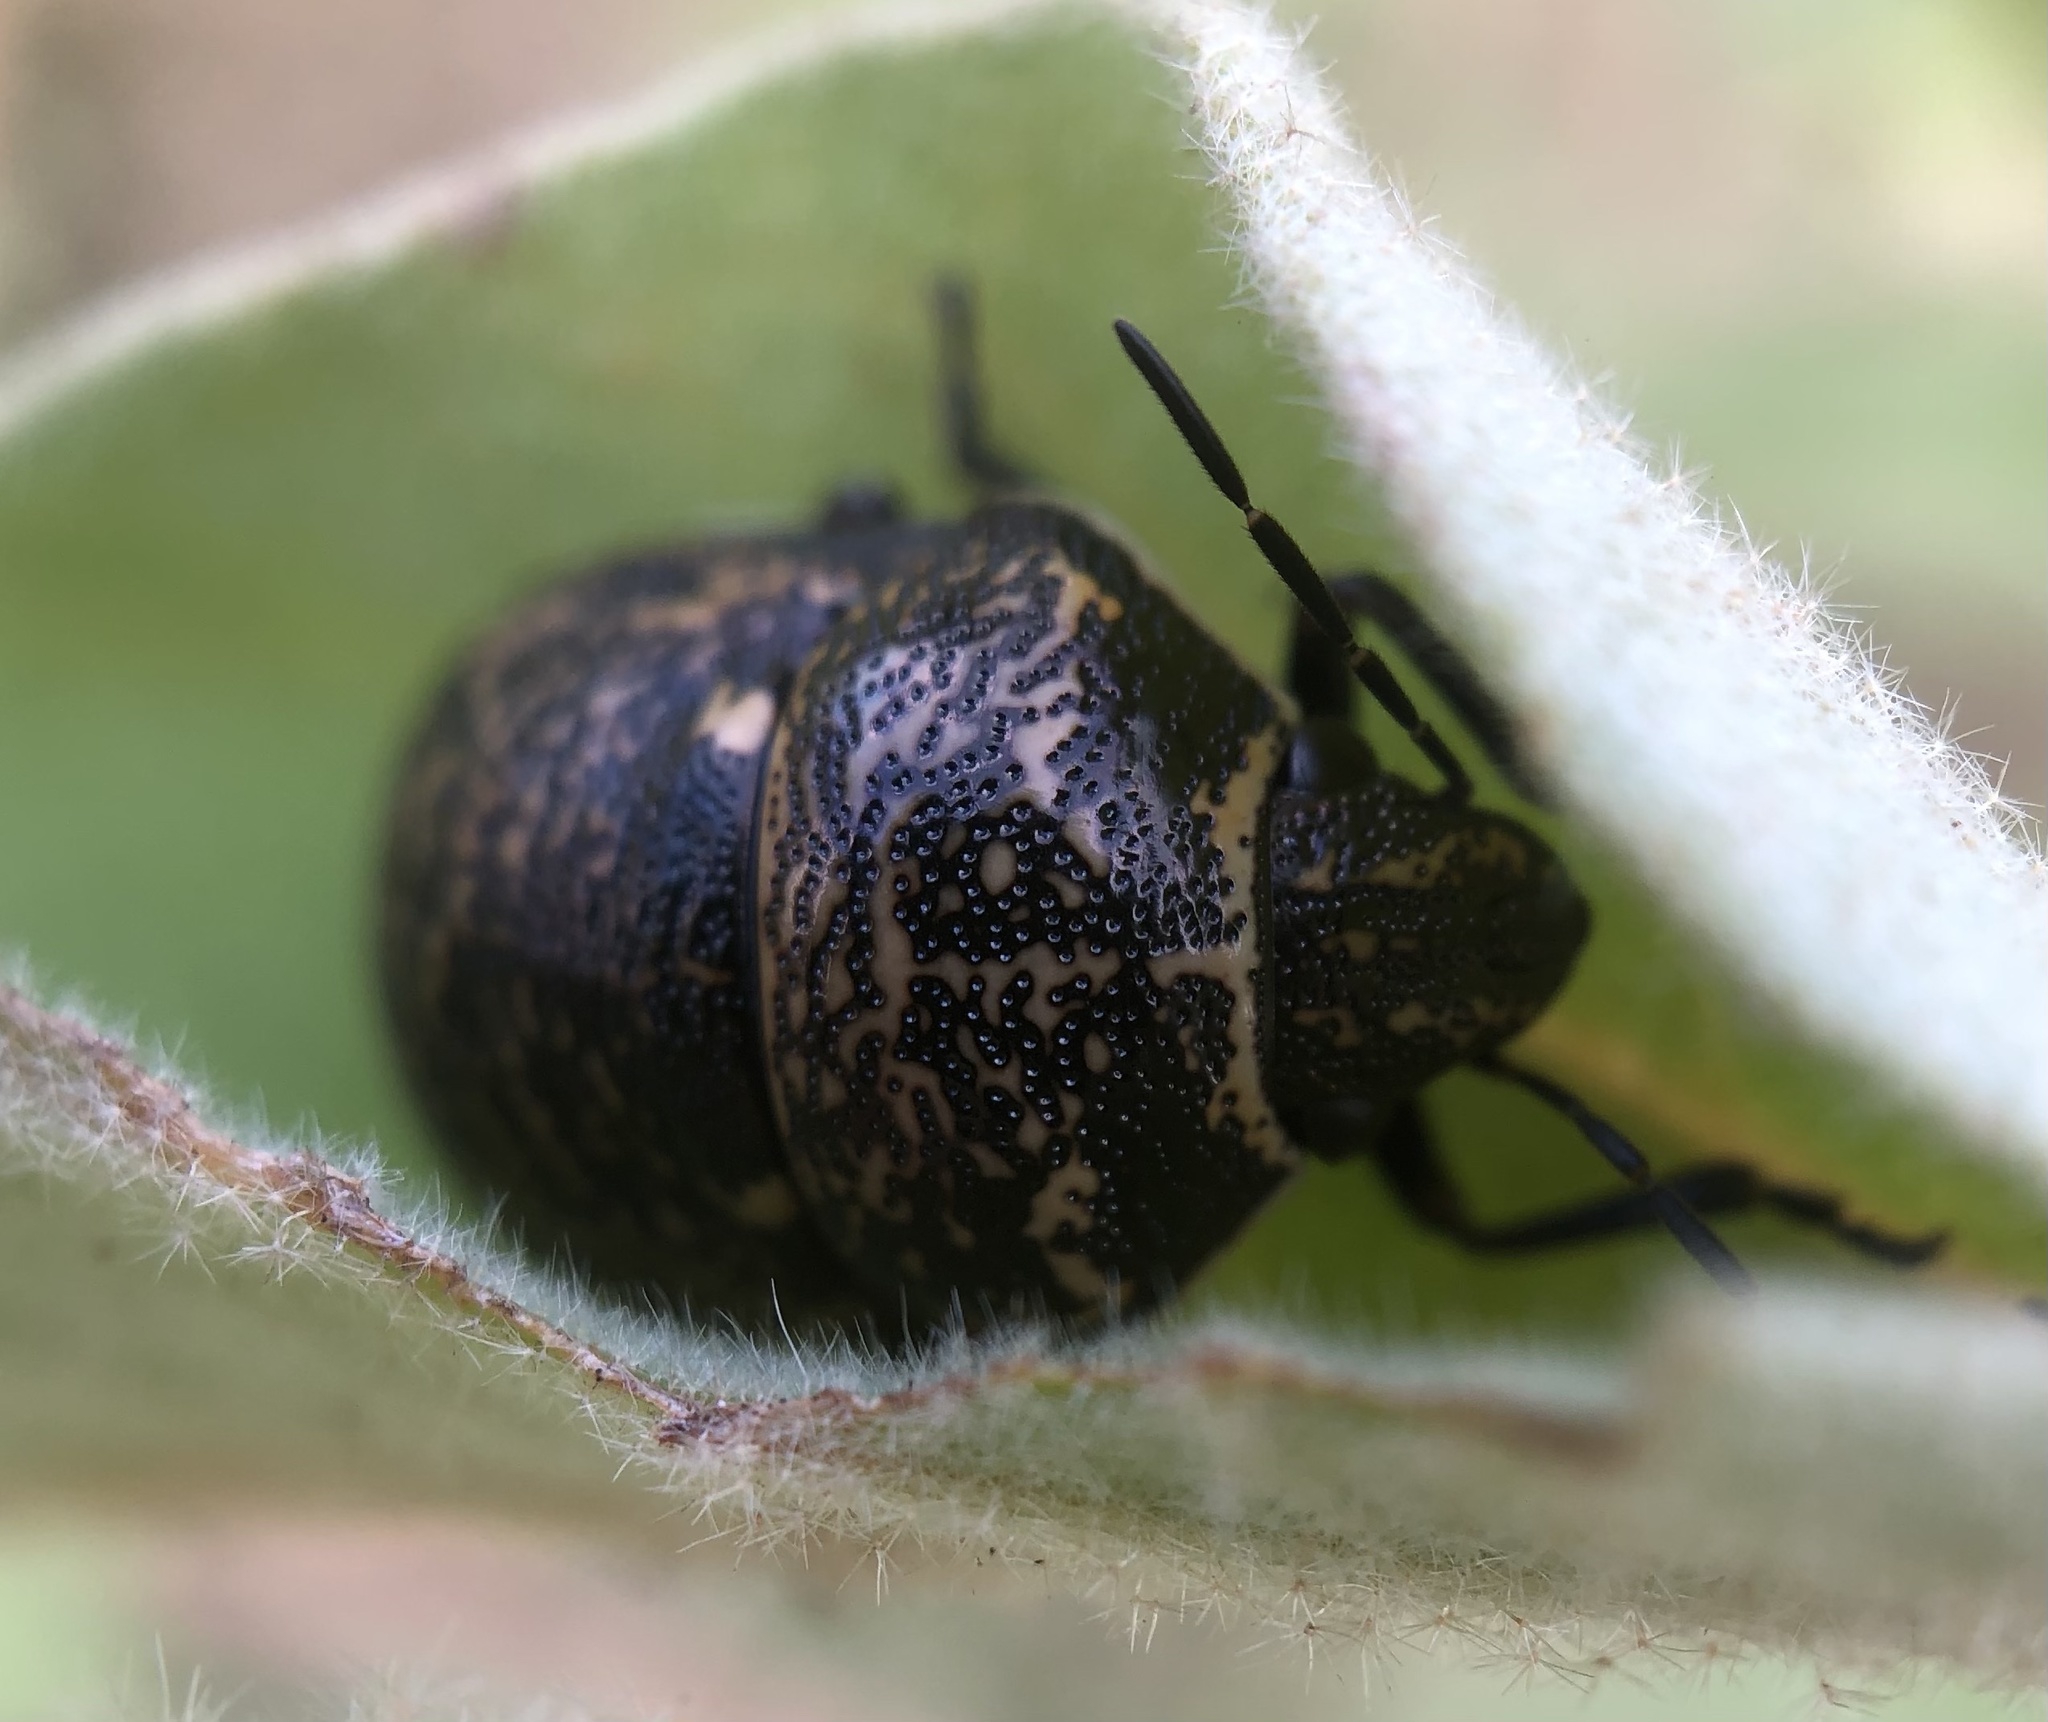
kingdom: Animalia
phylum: Arthropoda
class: Insecta
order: Hemiptera
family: Scutelleridae
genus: Orsilochides
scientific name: Orsilochides guttata
